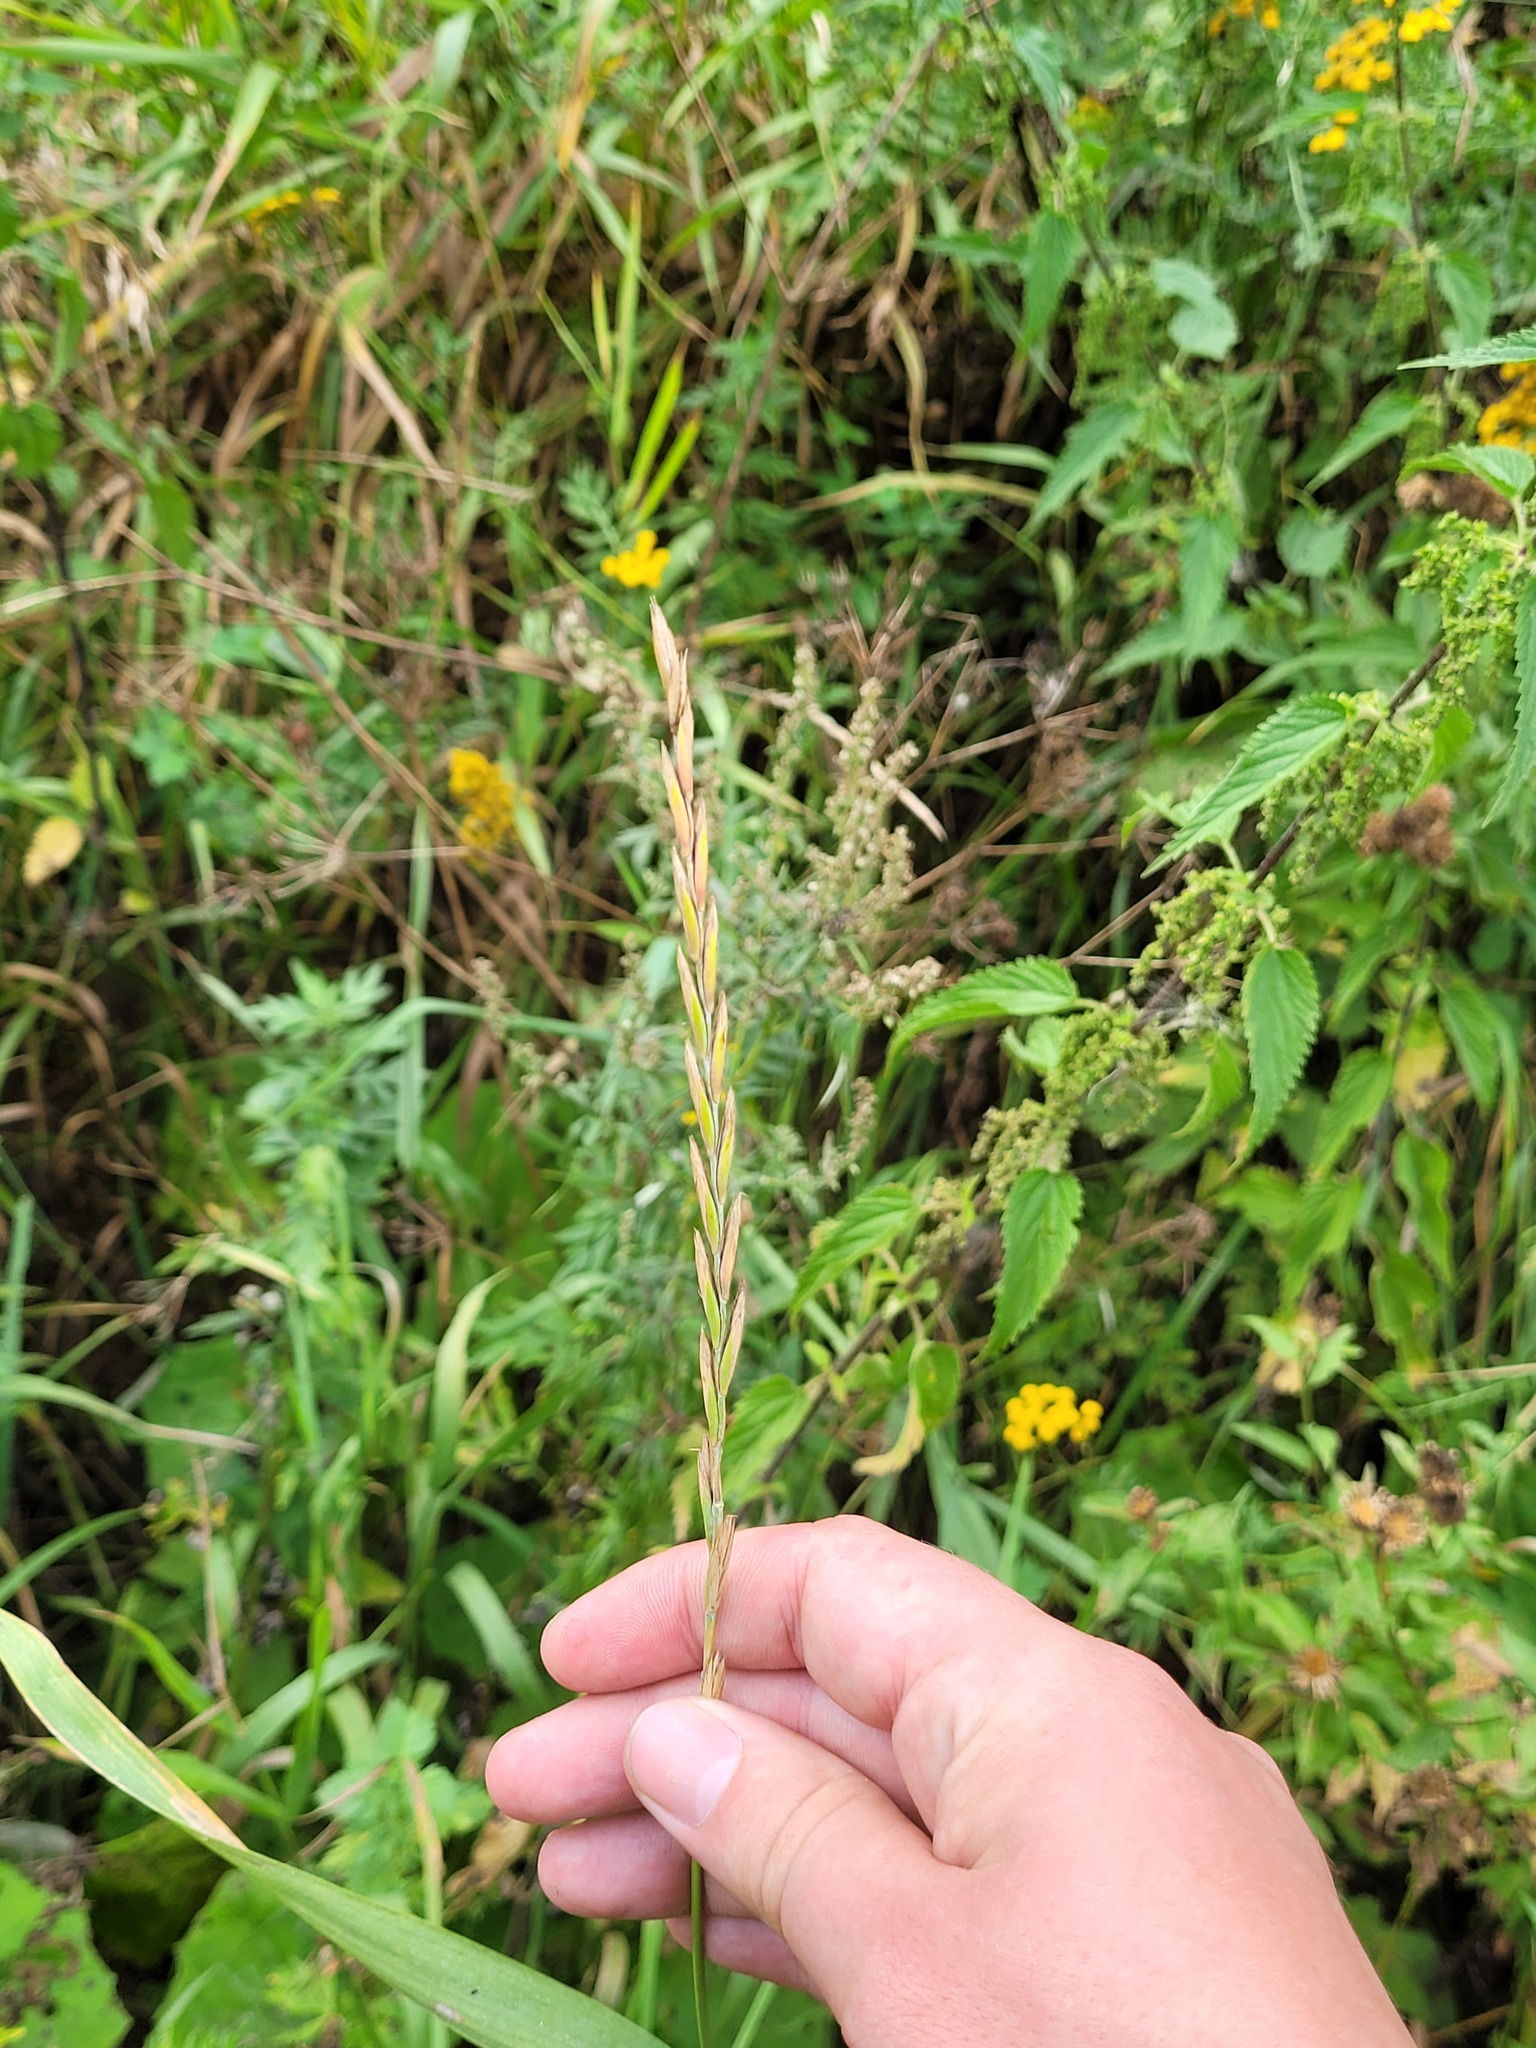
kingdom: Plantae
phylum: Tracheophyta
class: Liliopsida
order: Poales
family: Poaceae
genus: Elymus
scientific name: Elymus repens
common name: Quackgrass
